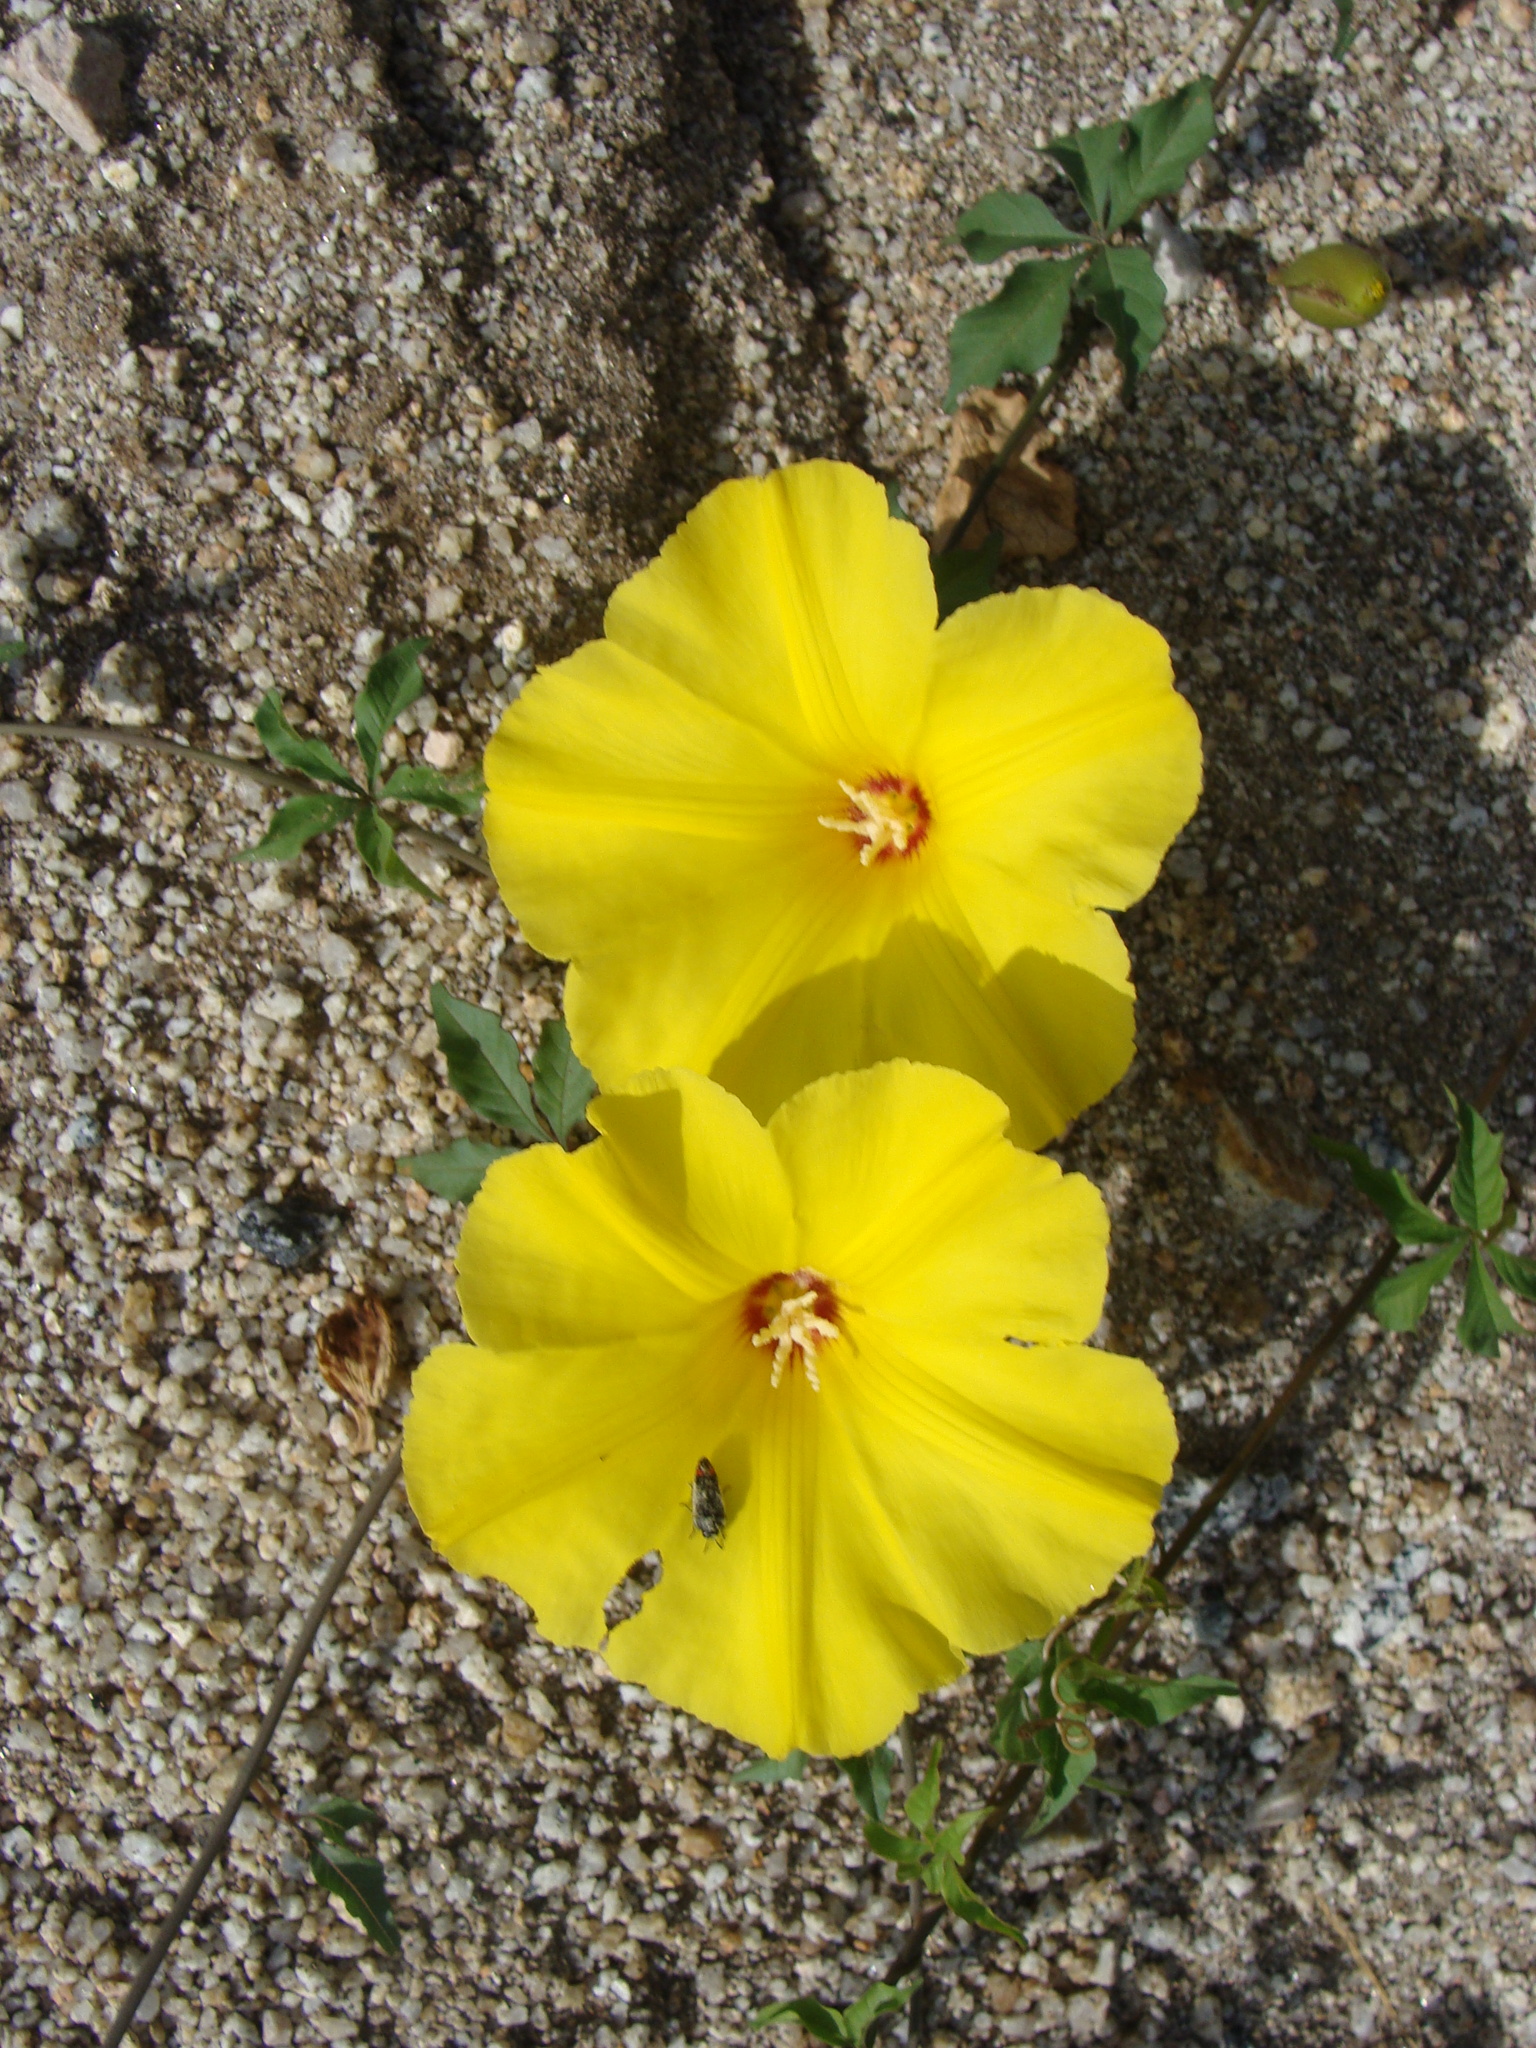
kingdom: Plantae
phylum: Tracheophyta
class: Magnoliopsida
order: Solanales
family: Convolvulaceae
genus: Distimake
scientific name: Distimake aureus
